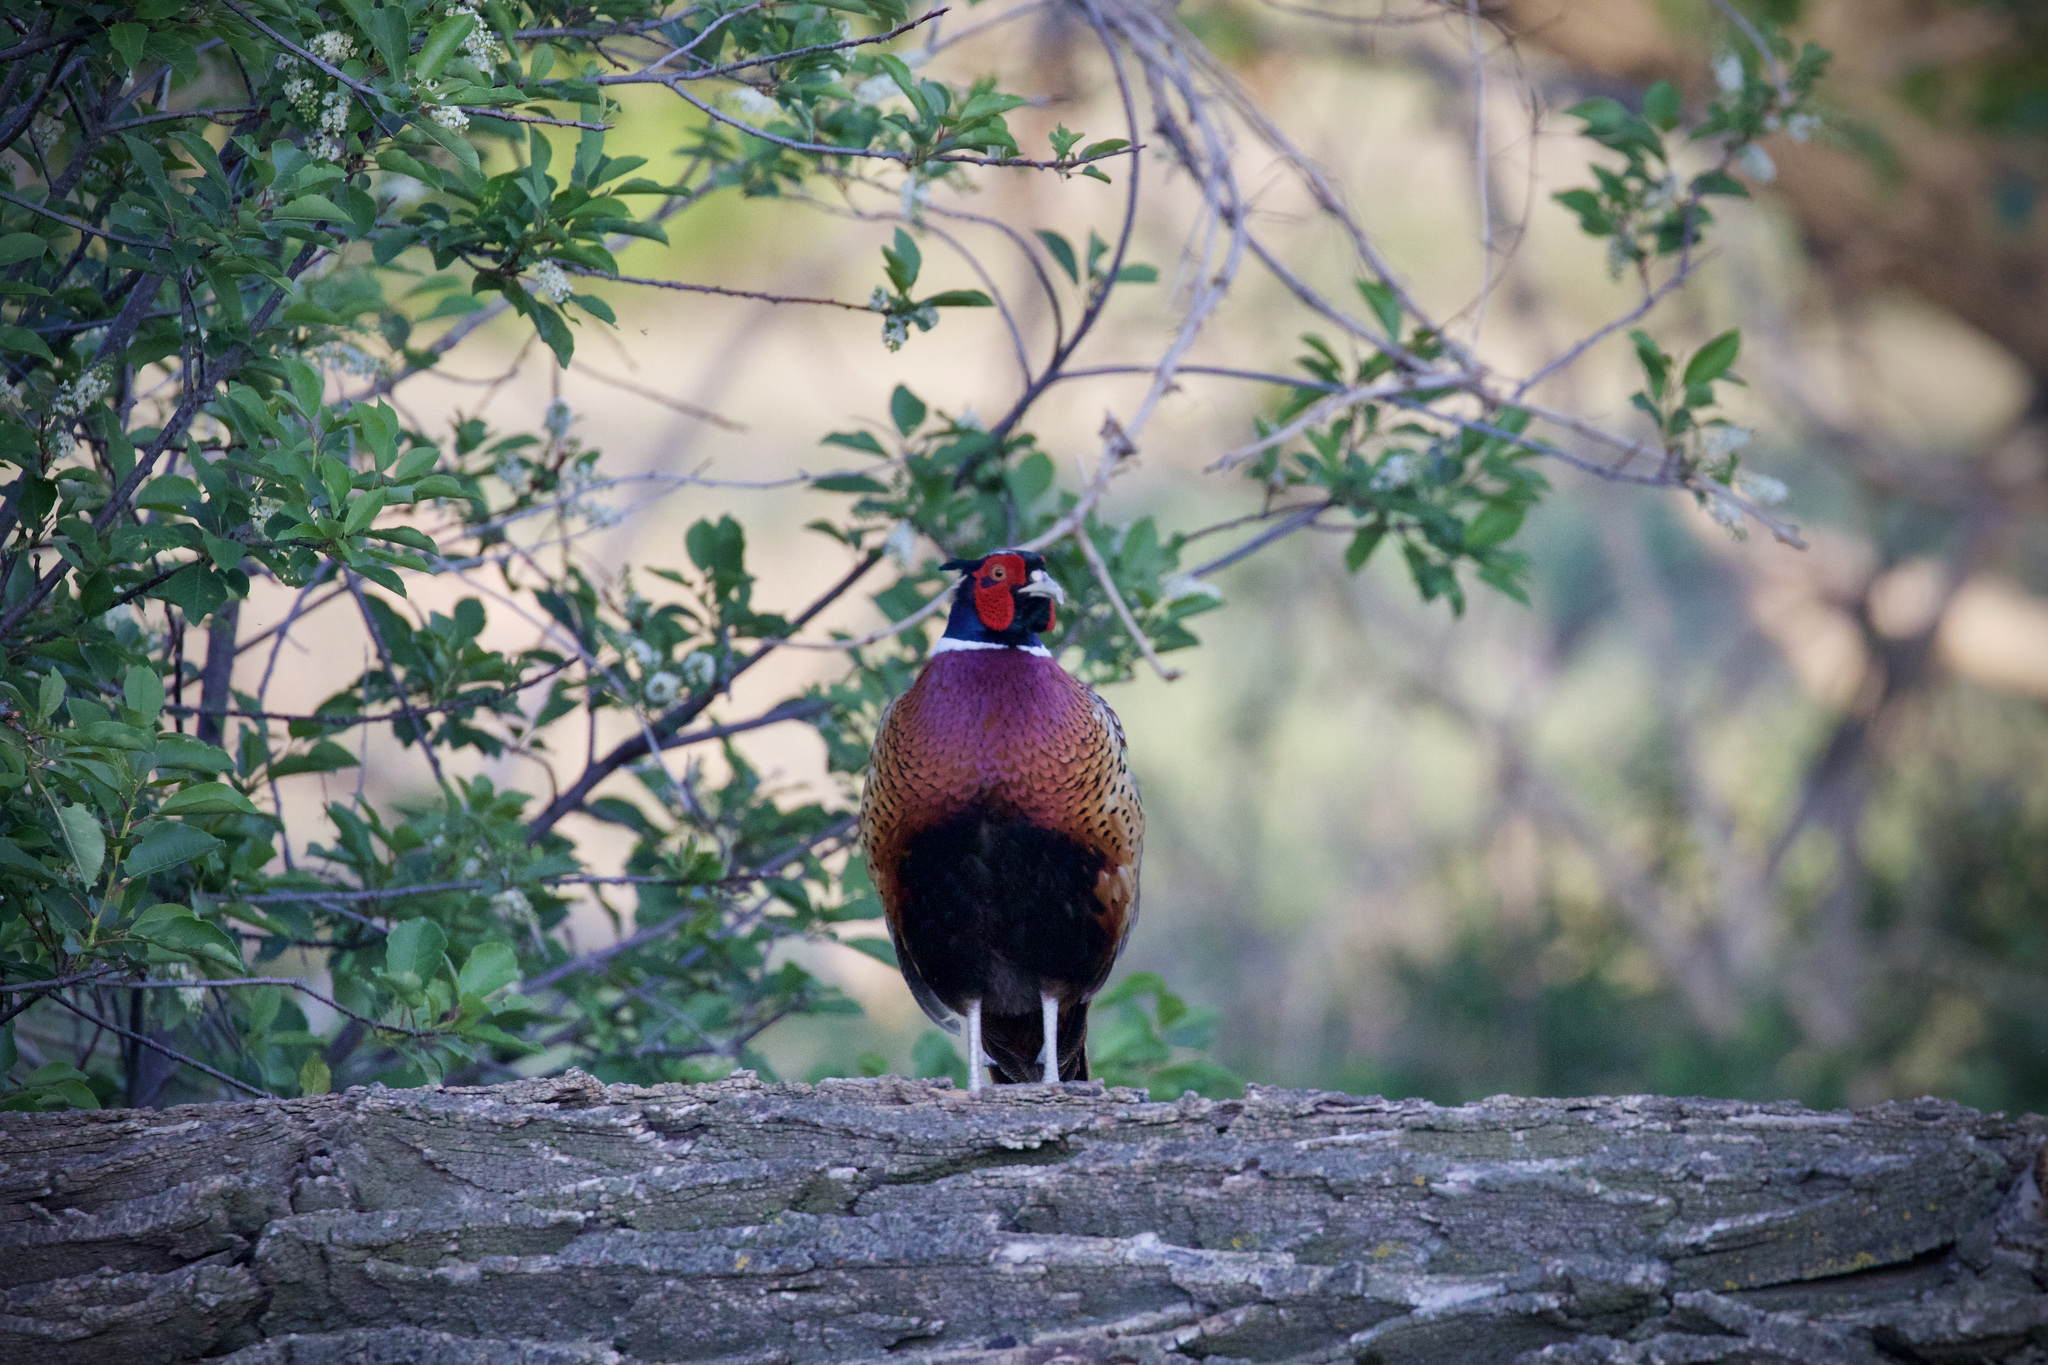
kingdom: Animalia
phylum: Chordata
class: Aves
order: Galliformes
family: Phasianidae
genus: Phasianus
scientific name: Phasianus colchicus
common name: Common pheasant
